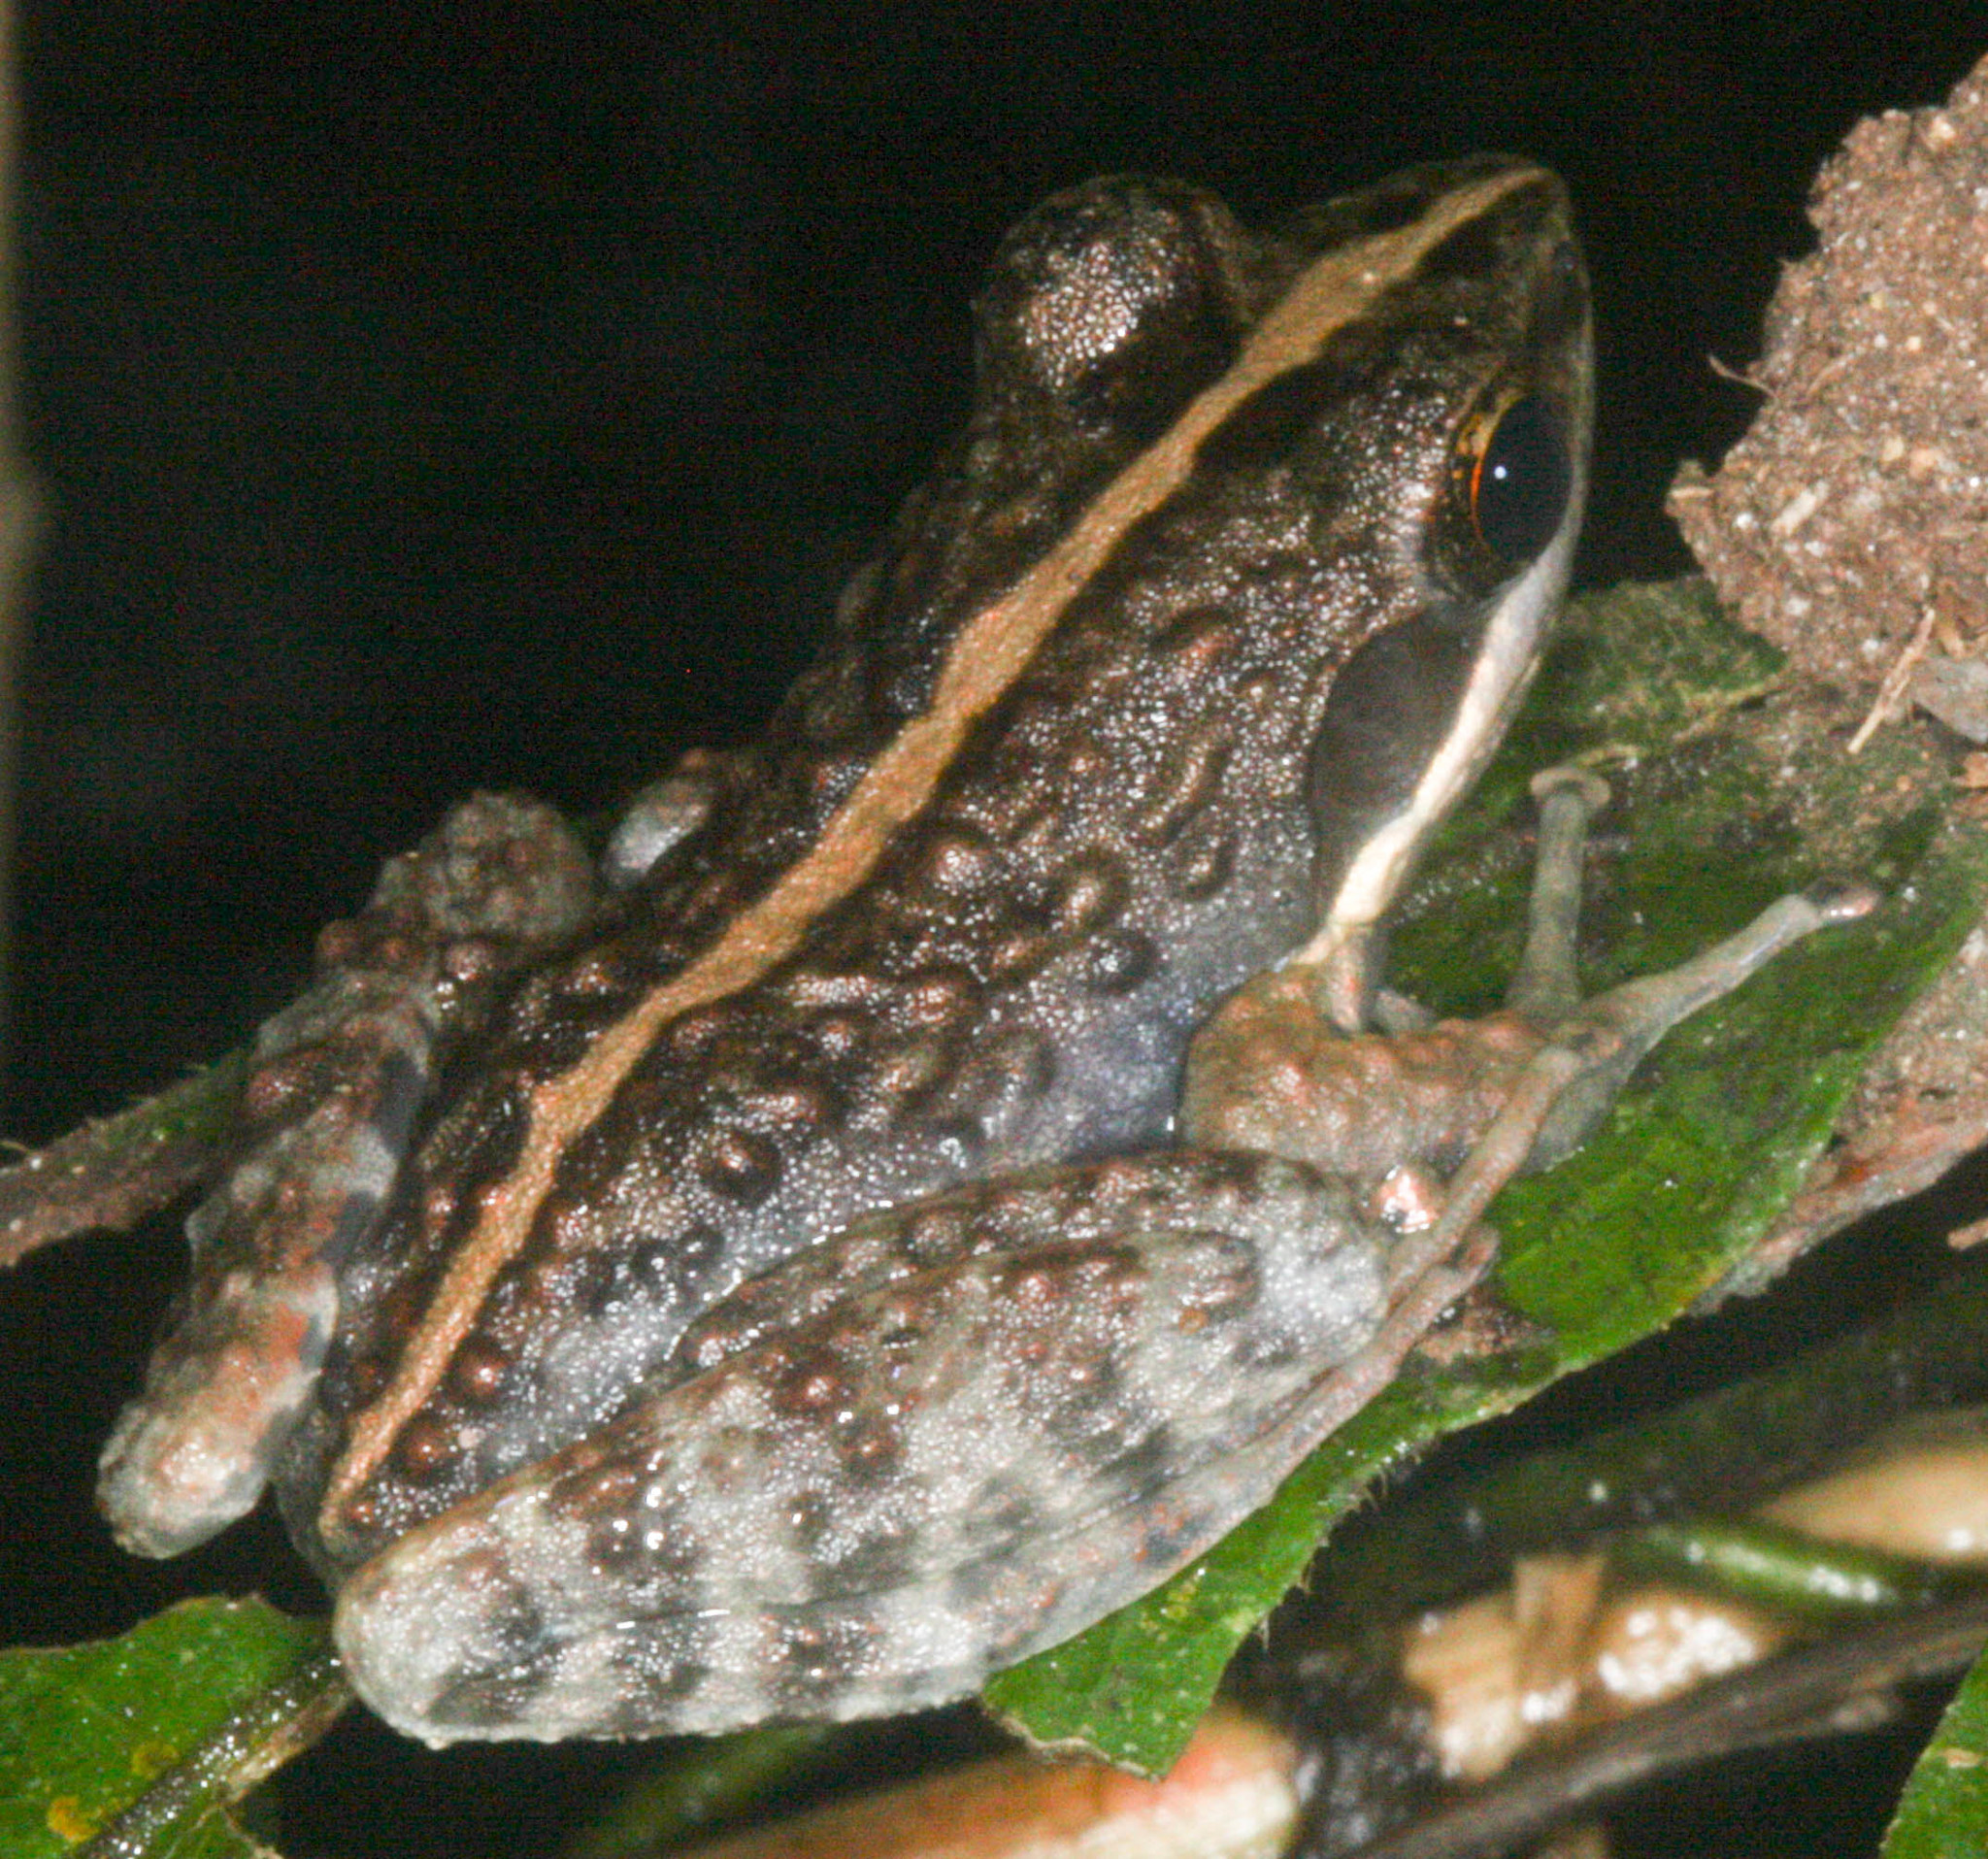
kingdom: Animalia
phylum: Chordata
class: Amphibia
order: Anura
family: Mantellidae
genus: Mantidactylus
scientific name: Mantidactylus femoralis
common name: Fort madagascar frog
